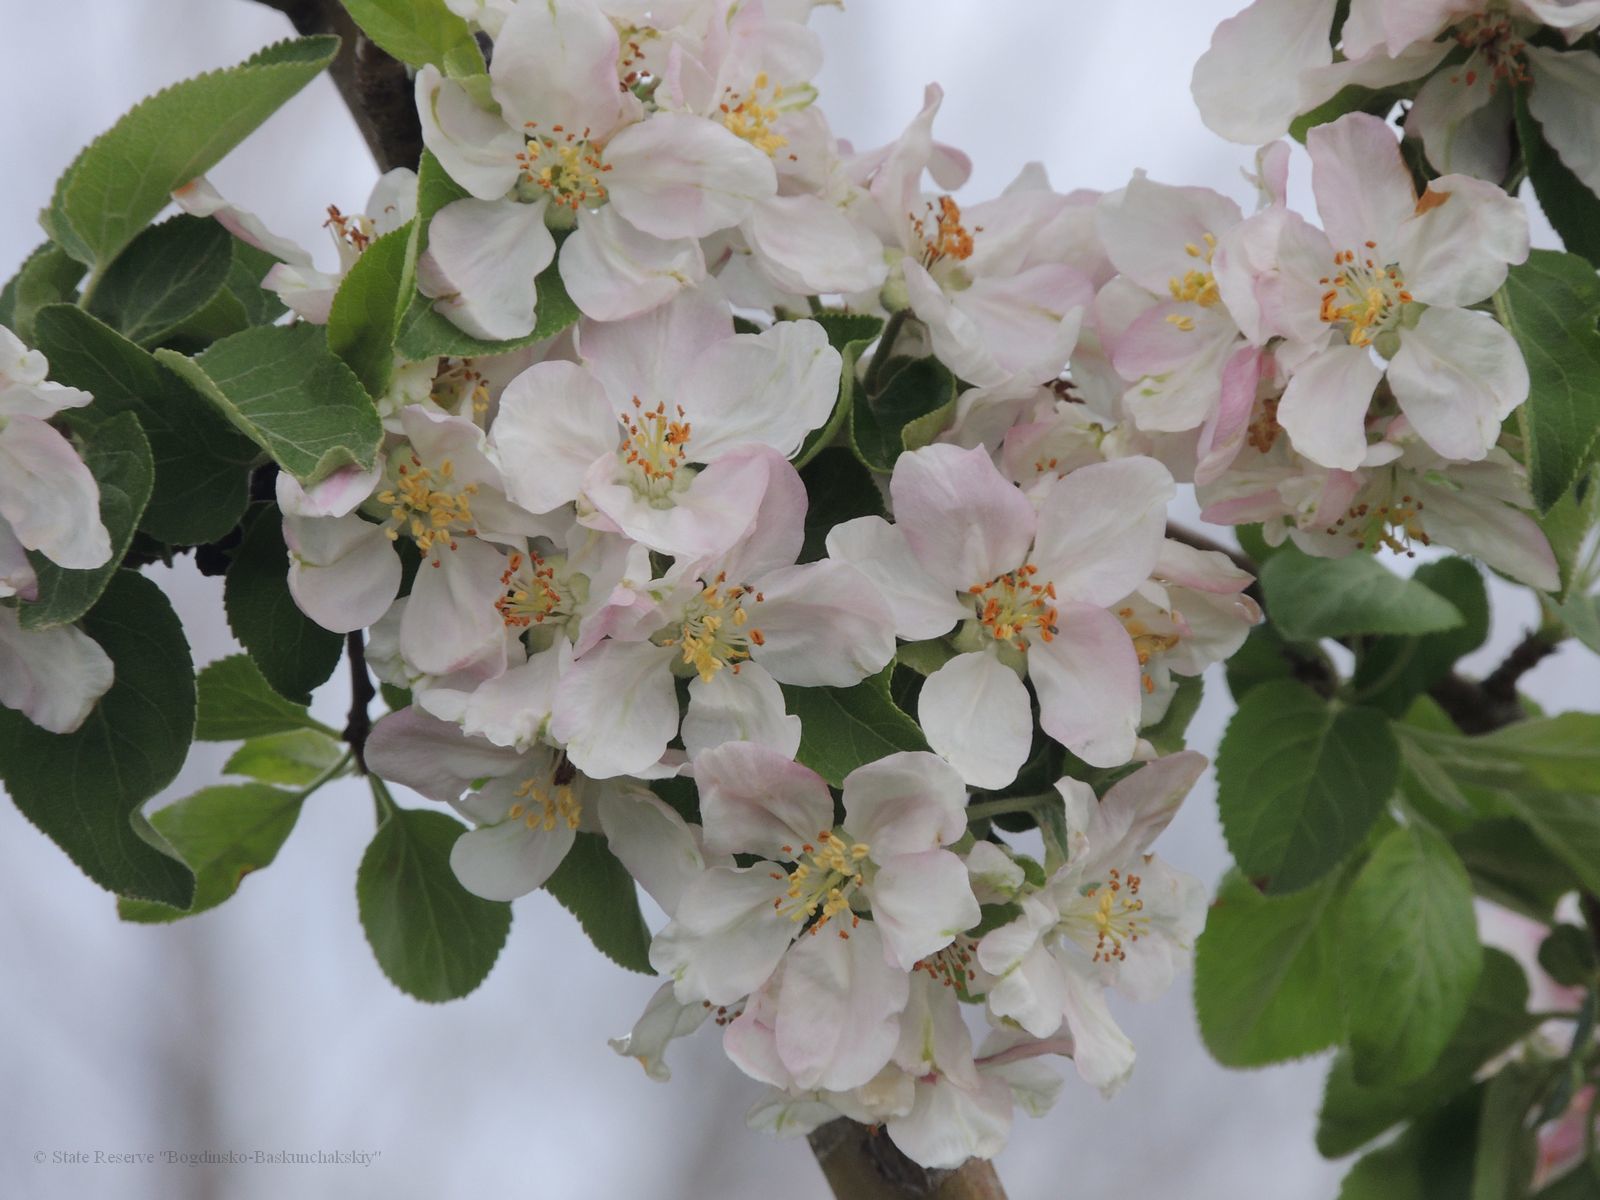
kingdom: Plantae
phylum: Tracheophyta
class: Magnoliopsida
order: Rosales
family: Rosaceae
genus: Malus
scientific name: Malus domestica
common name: Apple
